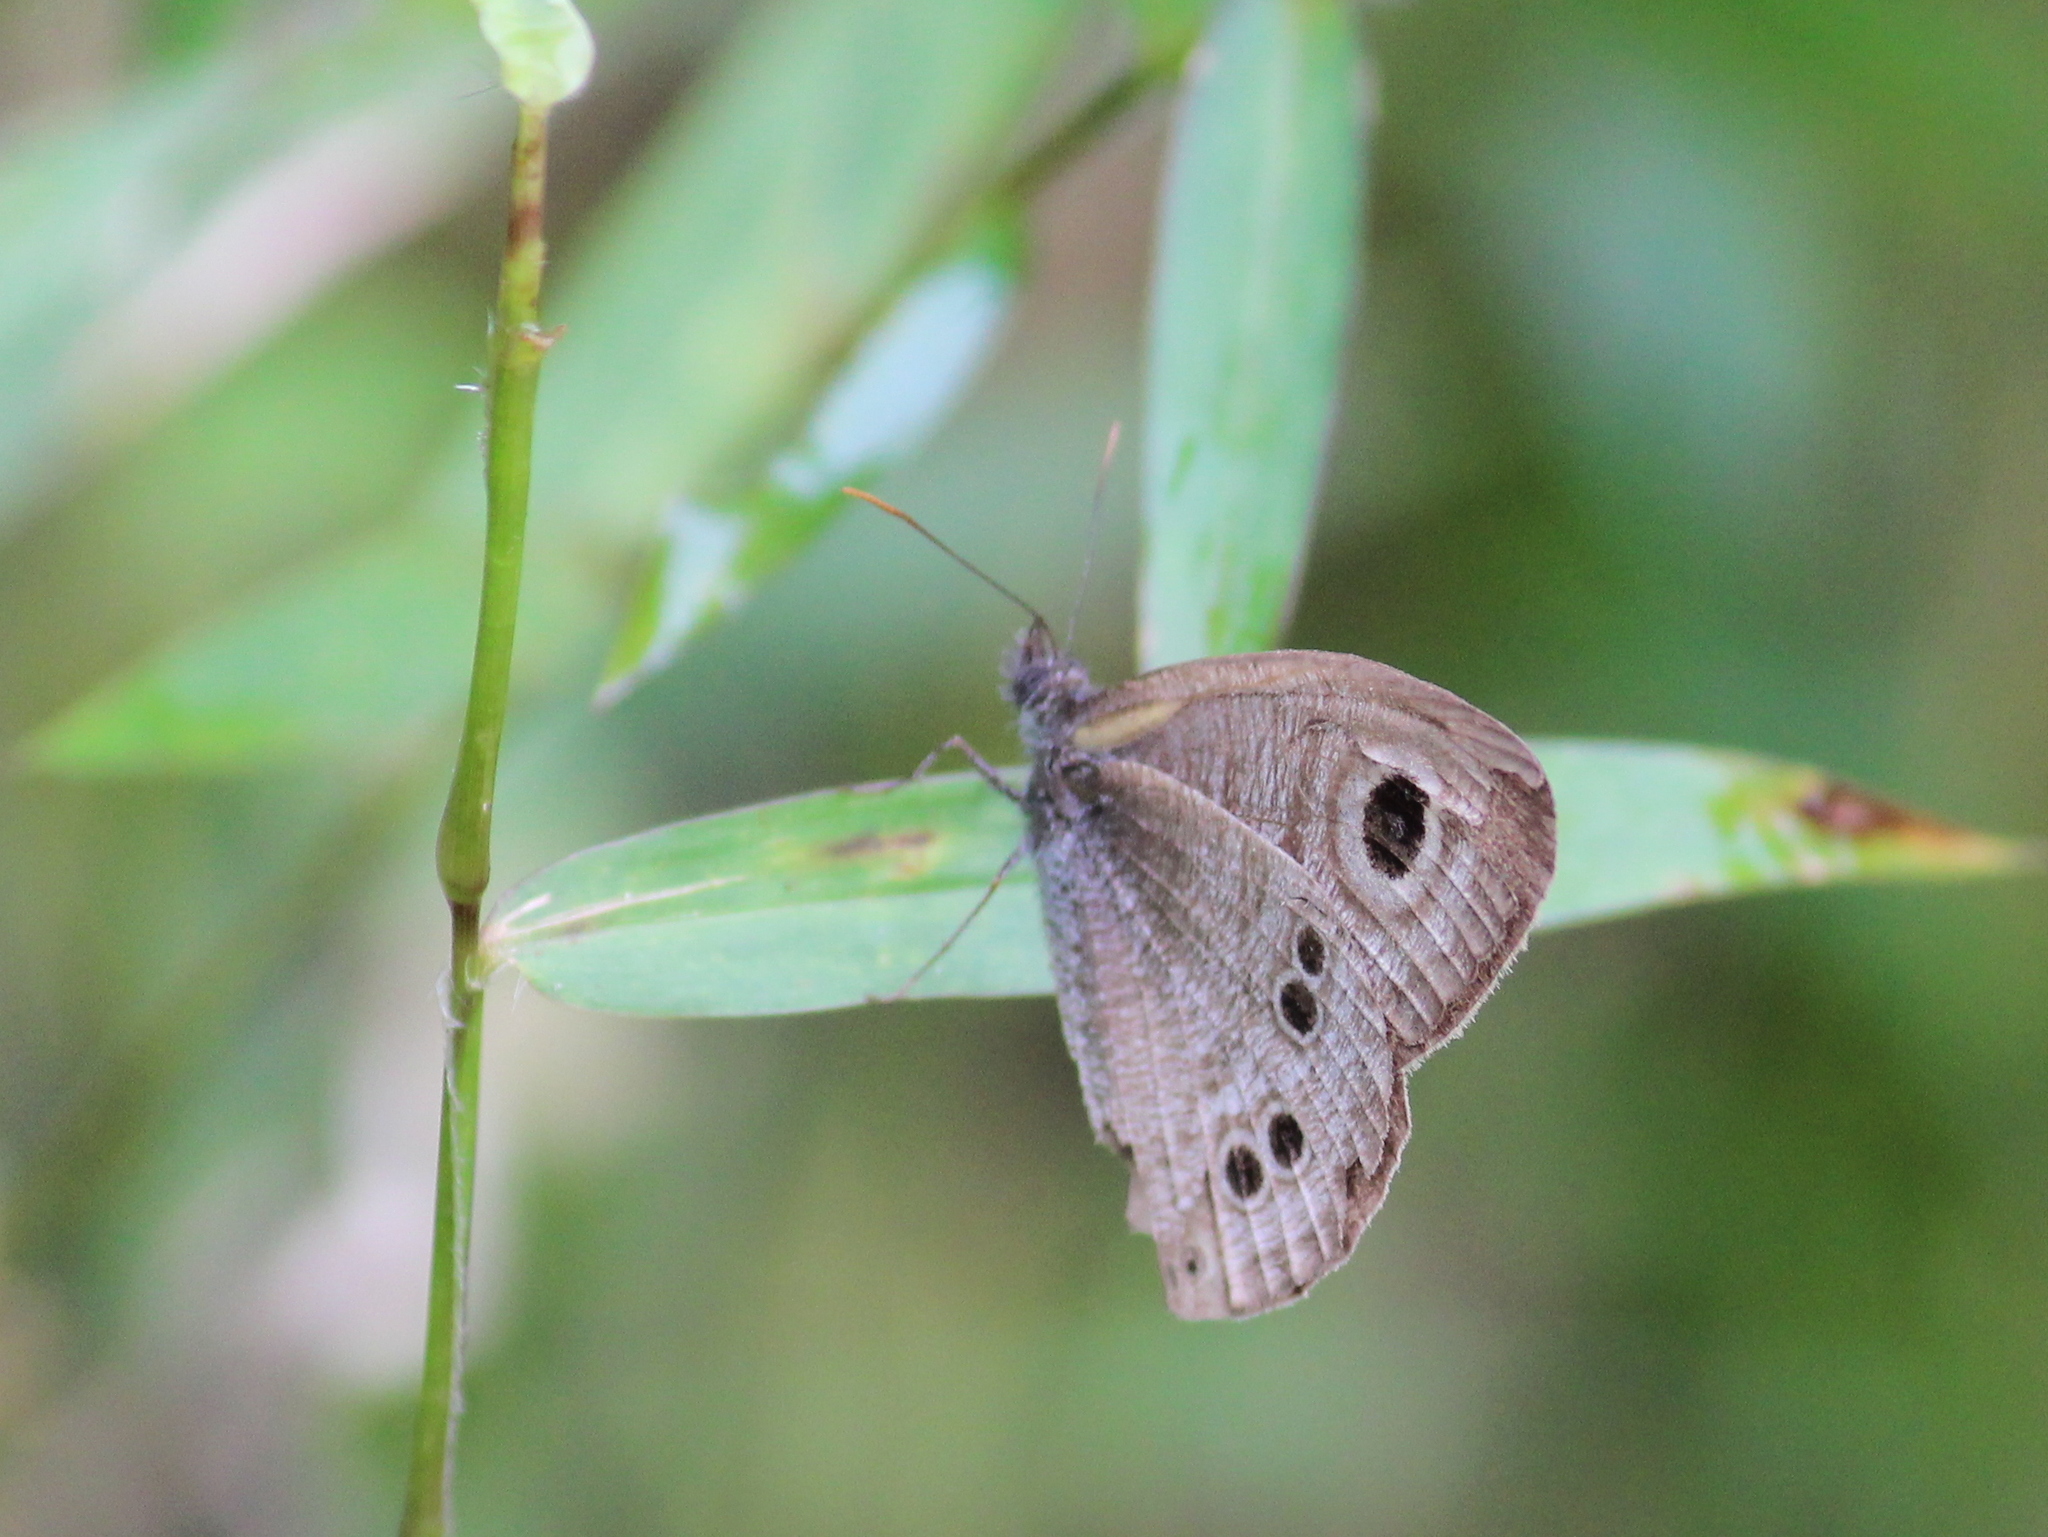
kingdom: Animalia
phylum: Arthropoda
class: Insecta
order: Lepidoptera
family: Nymphalidae
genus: Ypthima
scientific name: Ypthima baldus
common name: Common five-ring
